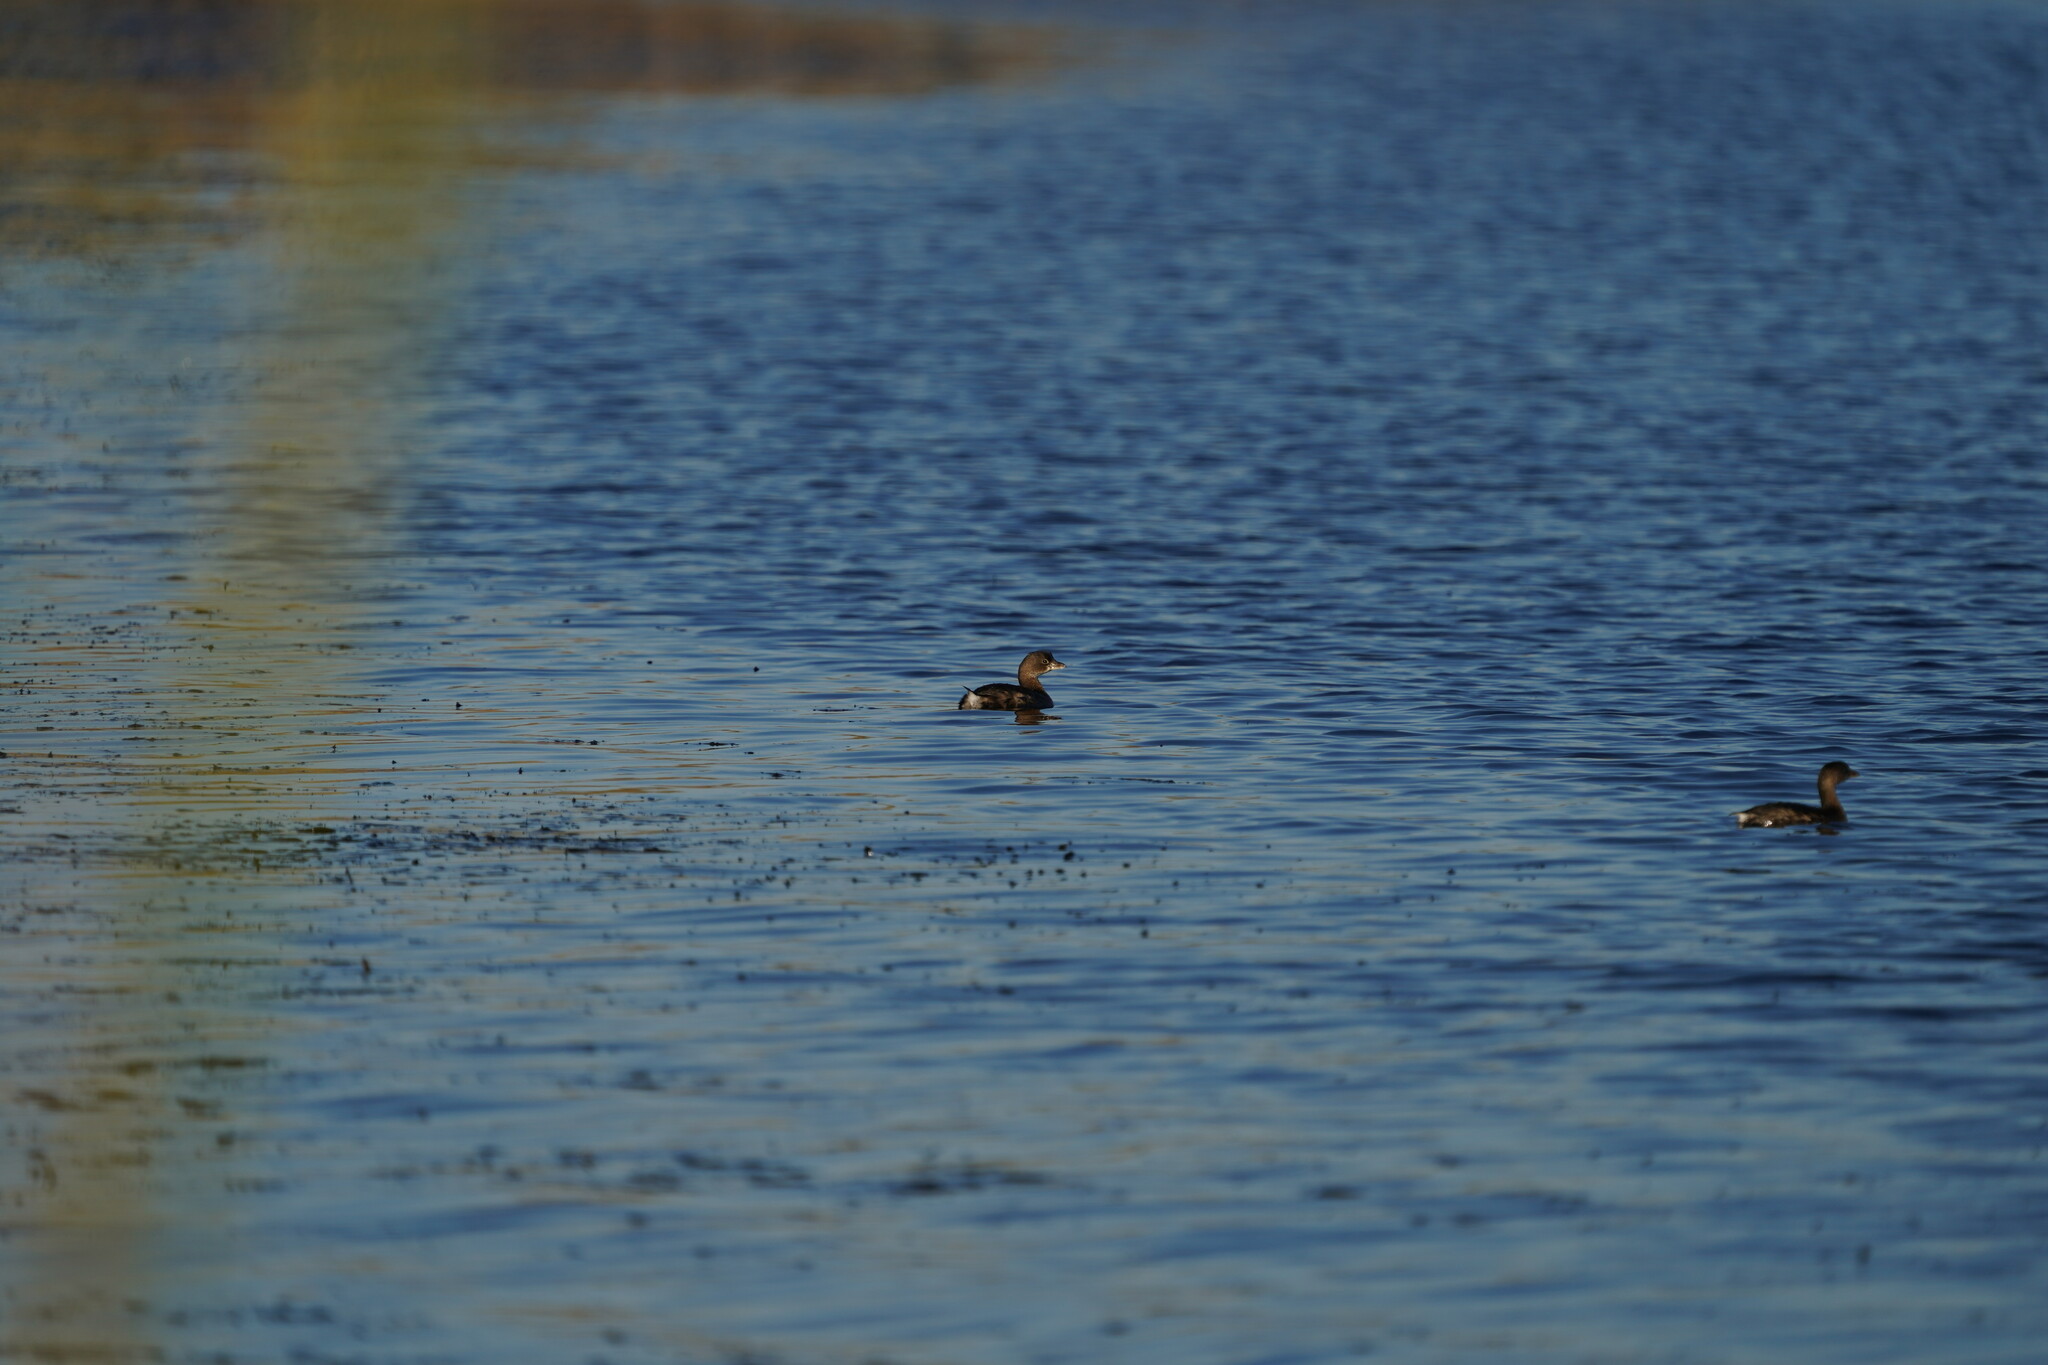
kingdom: Animalia
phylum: Chordata
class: Aves
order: Podicipediformes
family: Podicipedidae
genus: Podilymbus
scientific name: Podilymbus podiceps
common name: Pied-billed grebe
